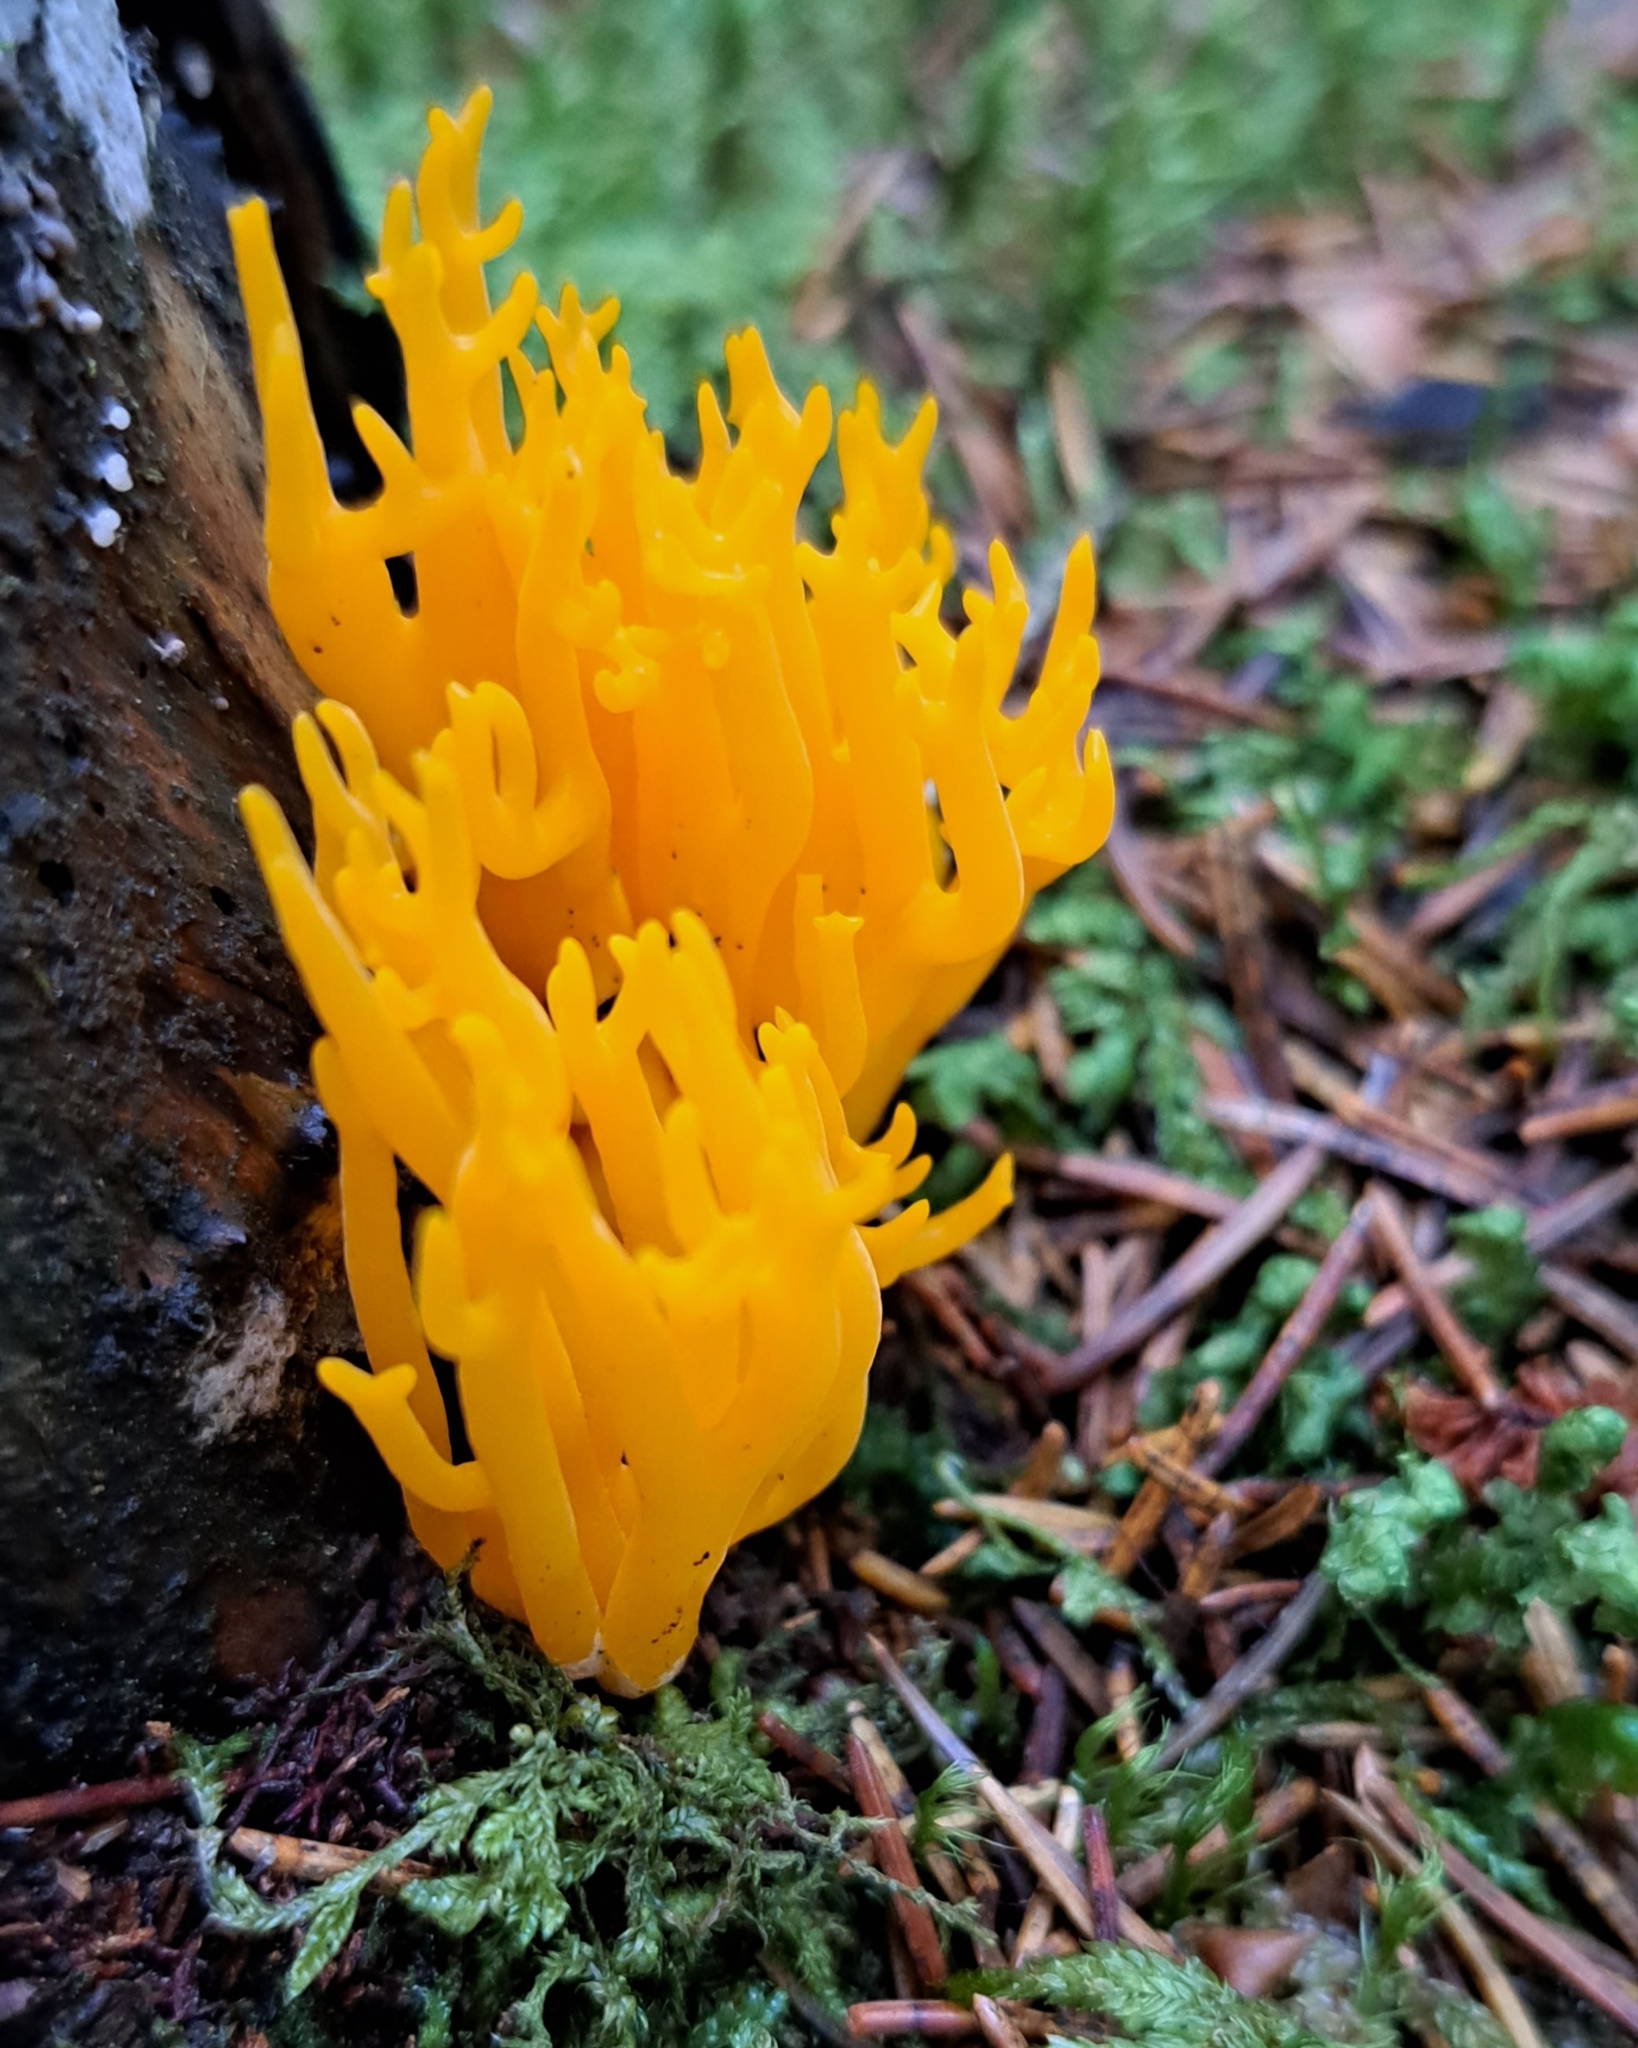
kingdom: Fungi
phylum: Basidiomycota
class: Dacrymycetes
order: Dacrymycetales
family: Dacrymycetaceae
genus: Calocera
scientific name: Calocera viscosa
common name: Yellow stagshorn
